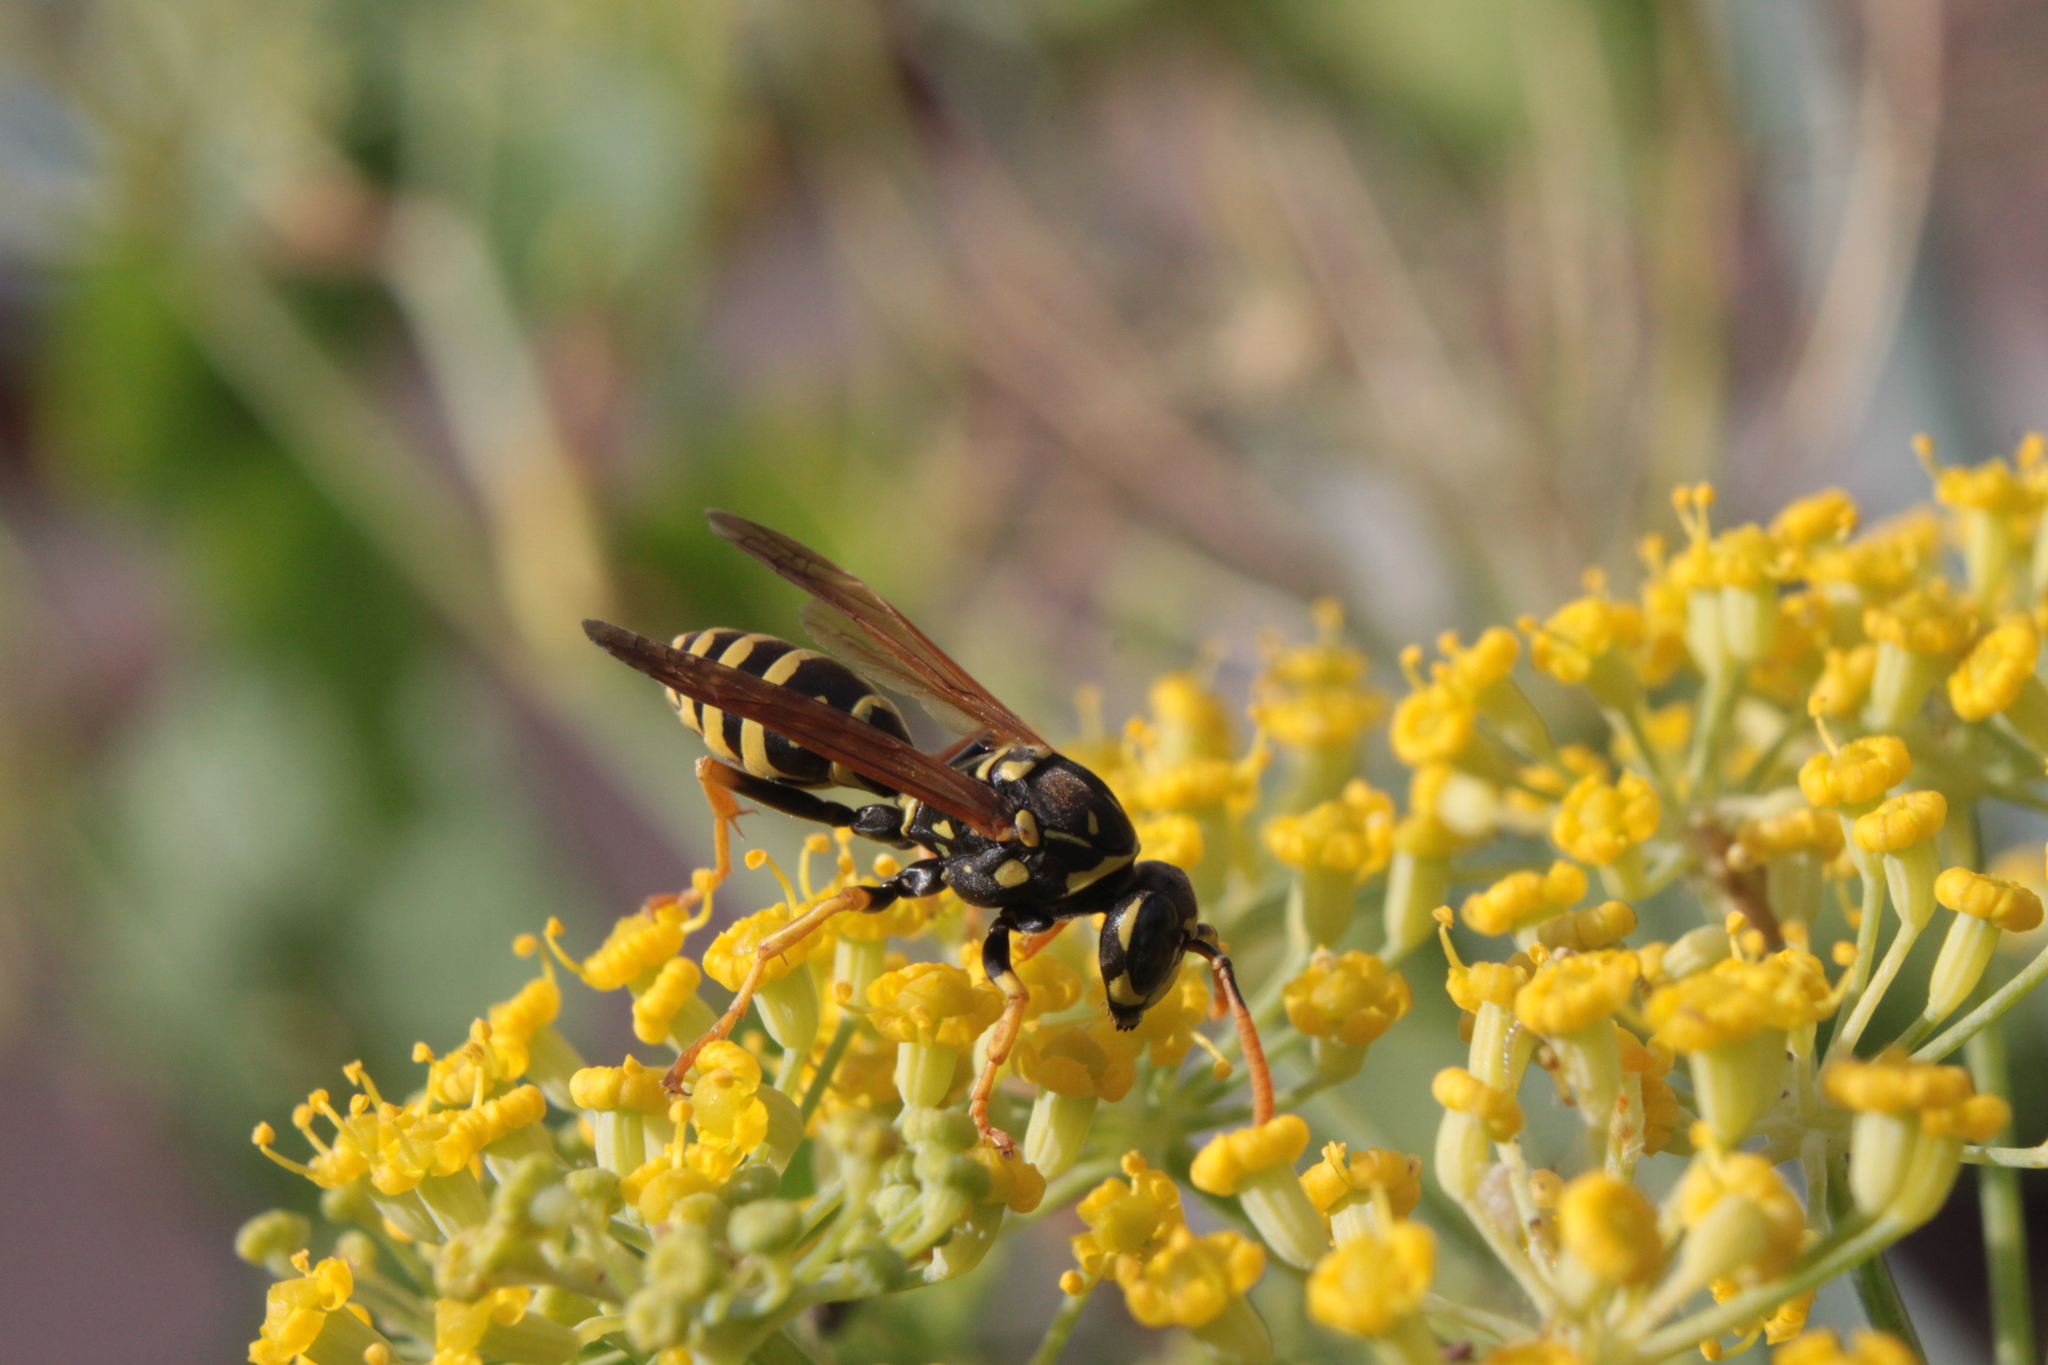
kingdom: Animalia
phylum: Arthropoda
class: Insecta
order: Hymenoptera
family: Eumenidae
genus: Polistes
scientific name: Polistes dominula
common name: Paper wasp
